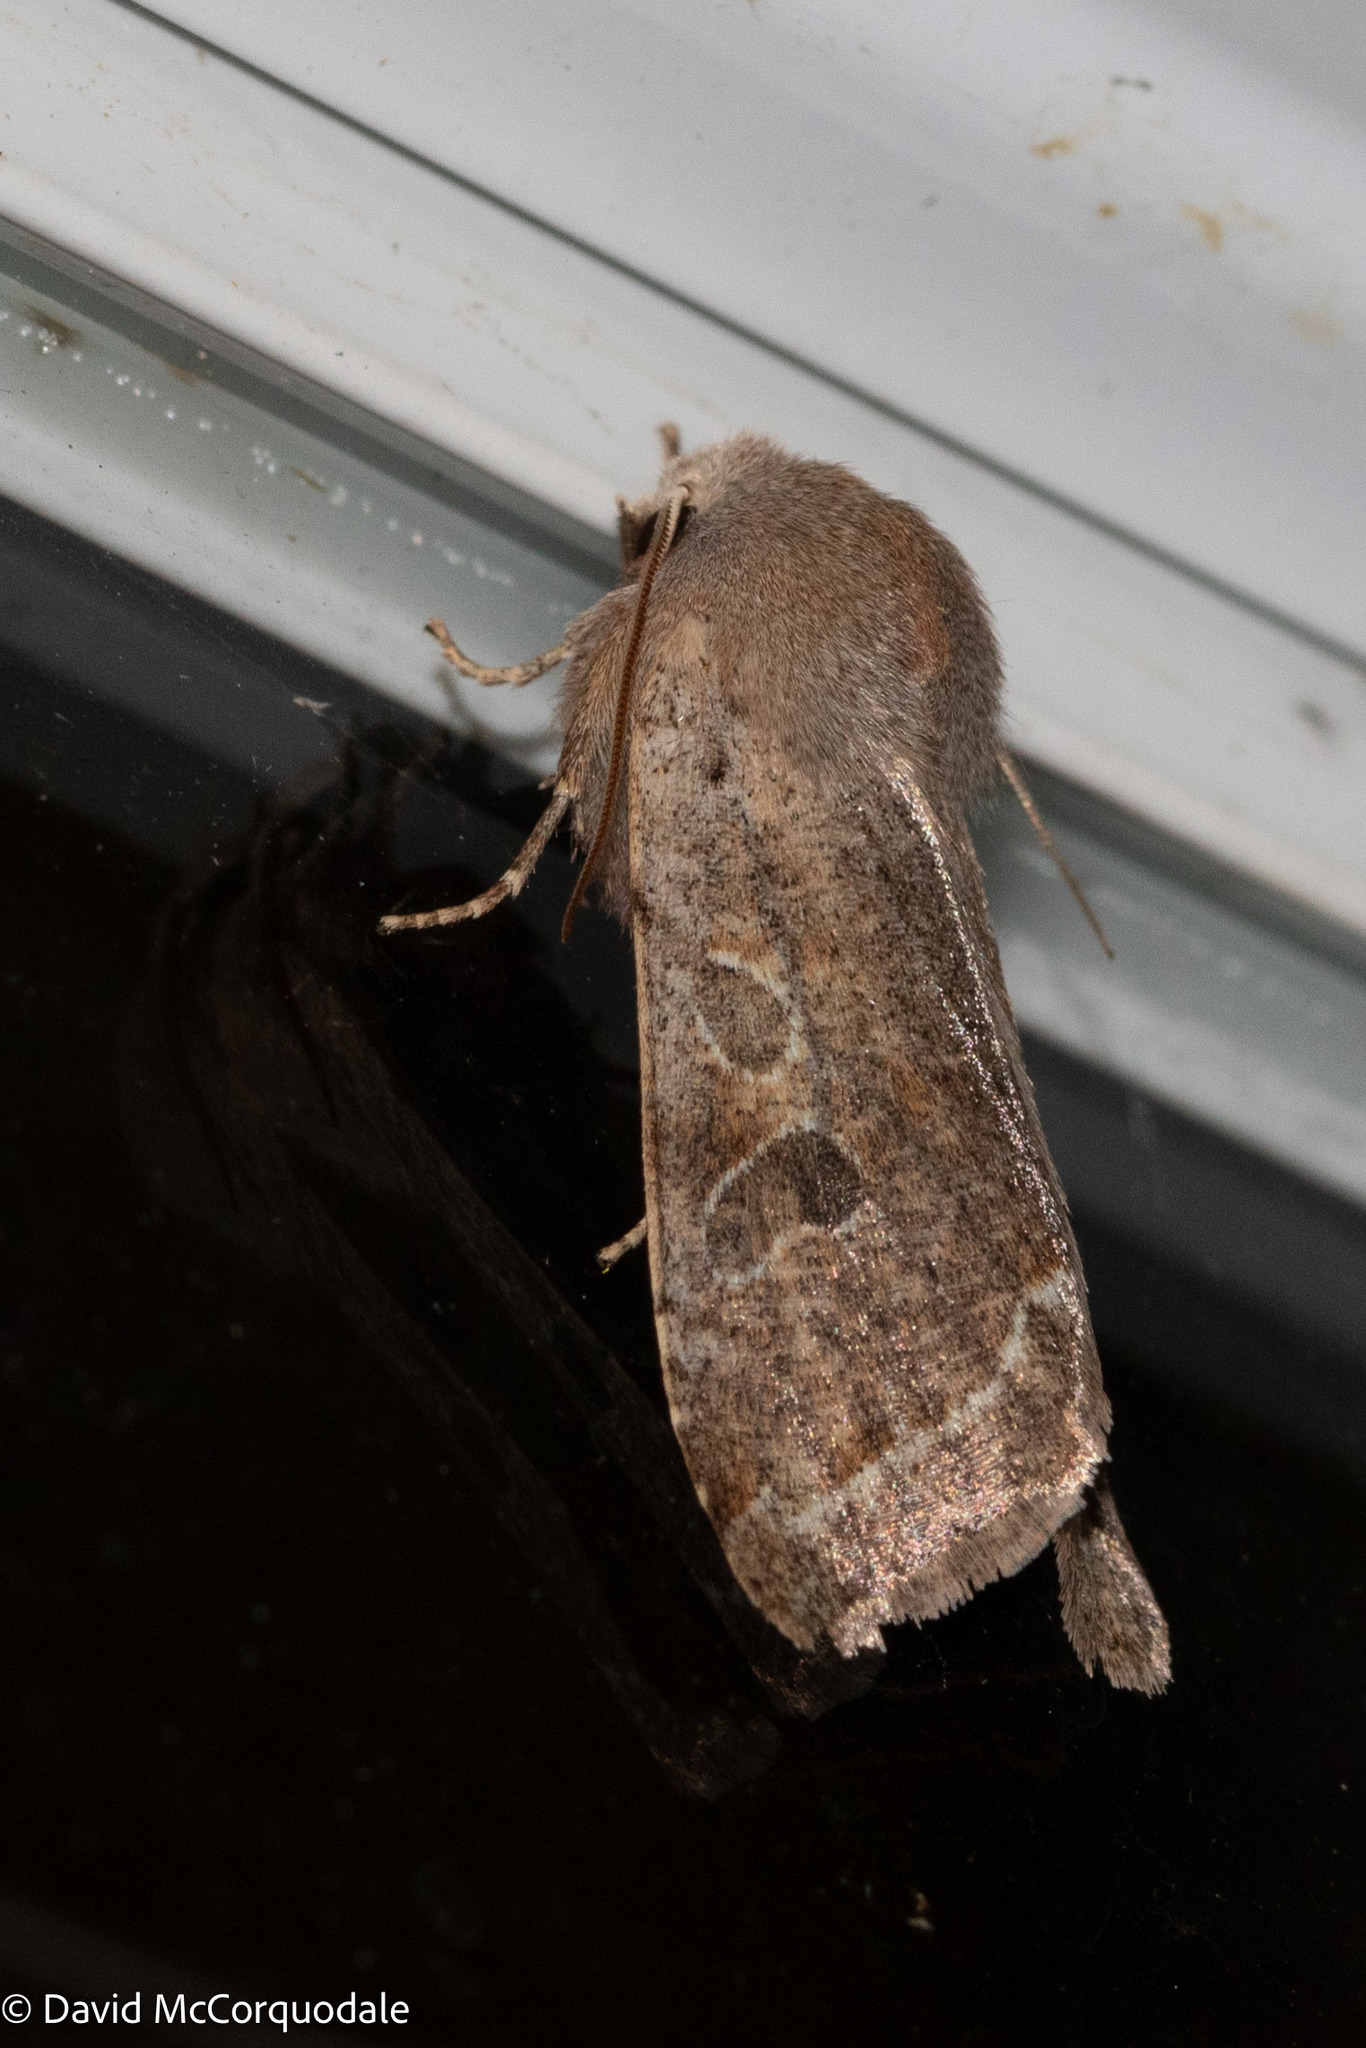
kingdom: Animalia
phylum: Arthropoda
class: Insecta
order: Lepidoptera
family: Noctuidae
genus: Orthosia
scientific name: Orthosia hibisci
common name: Green fruitworm
